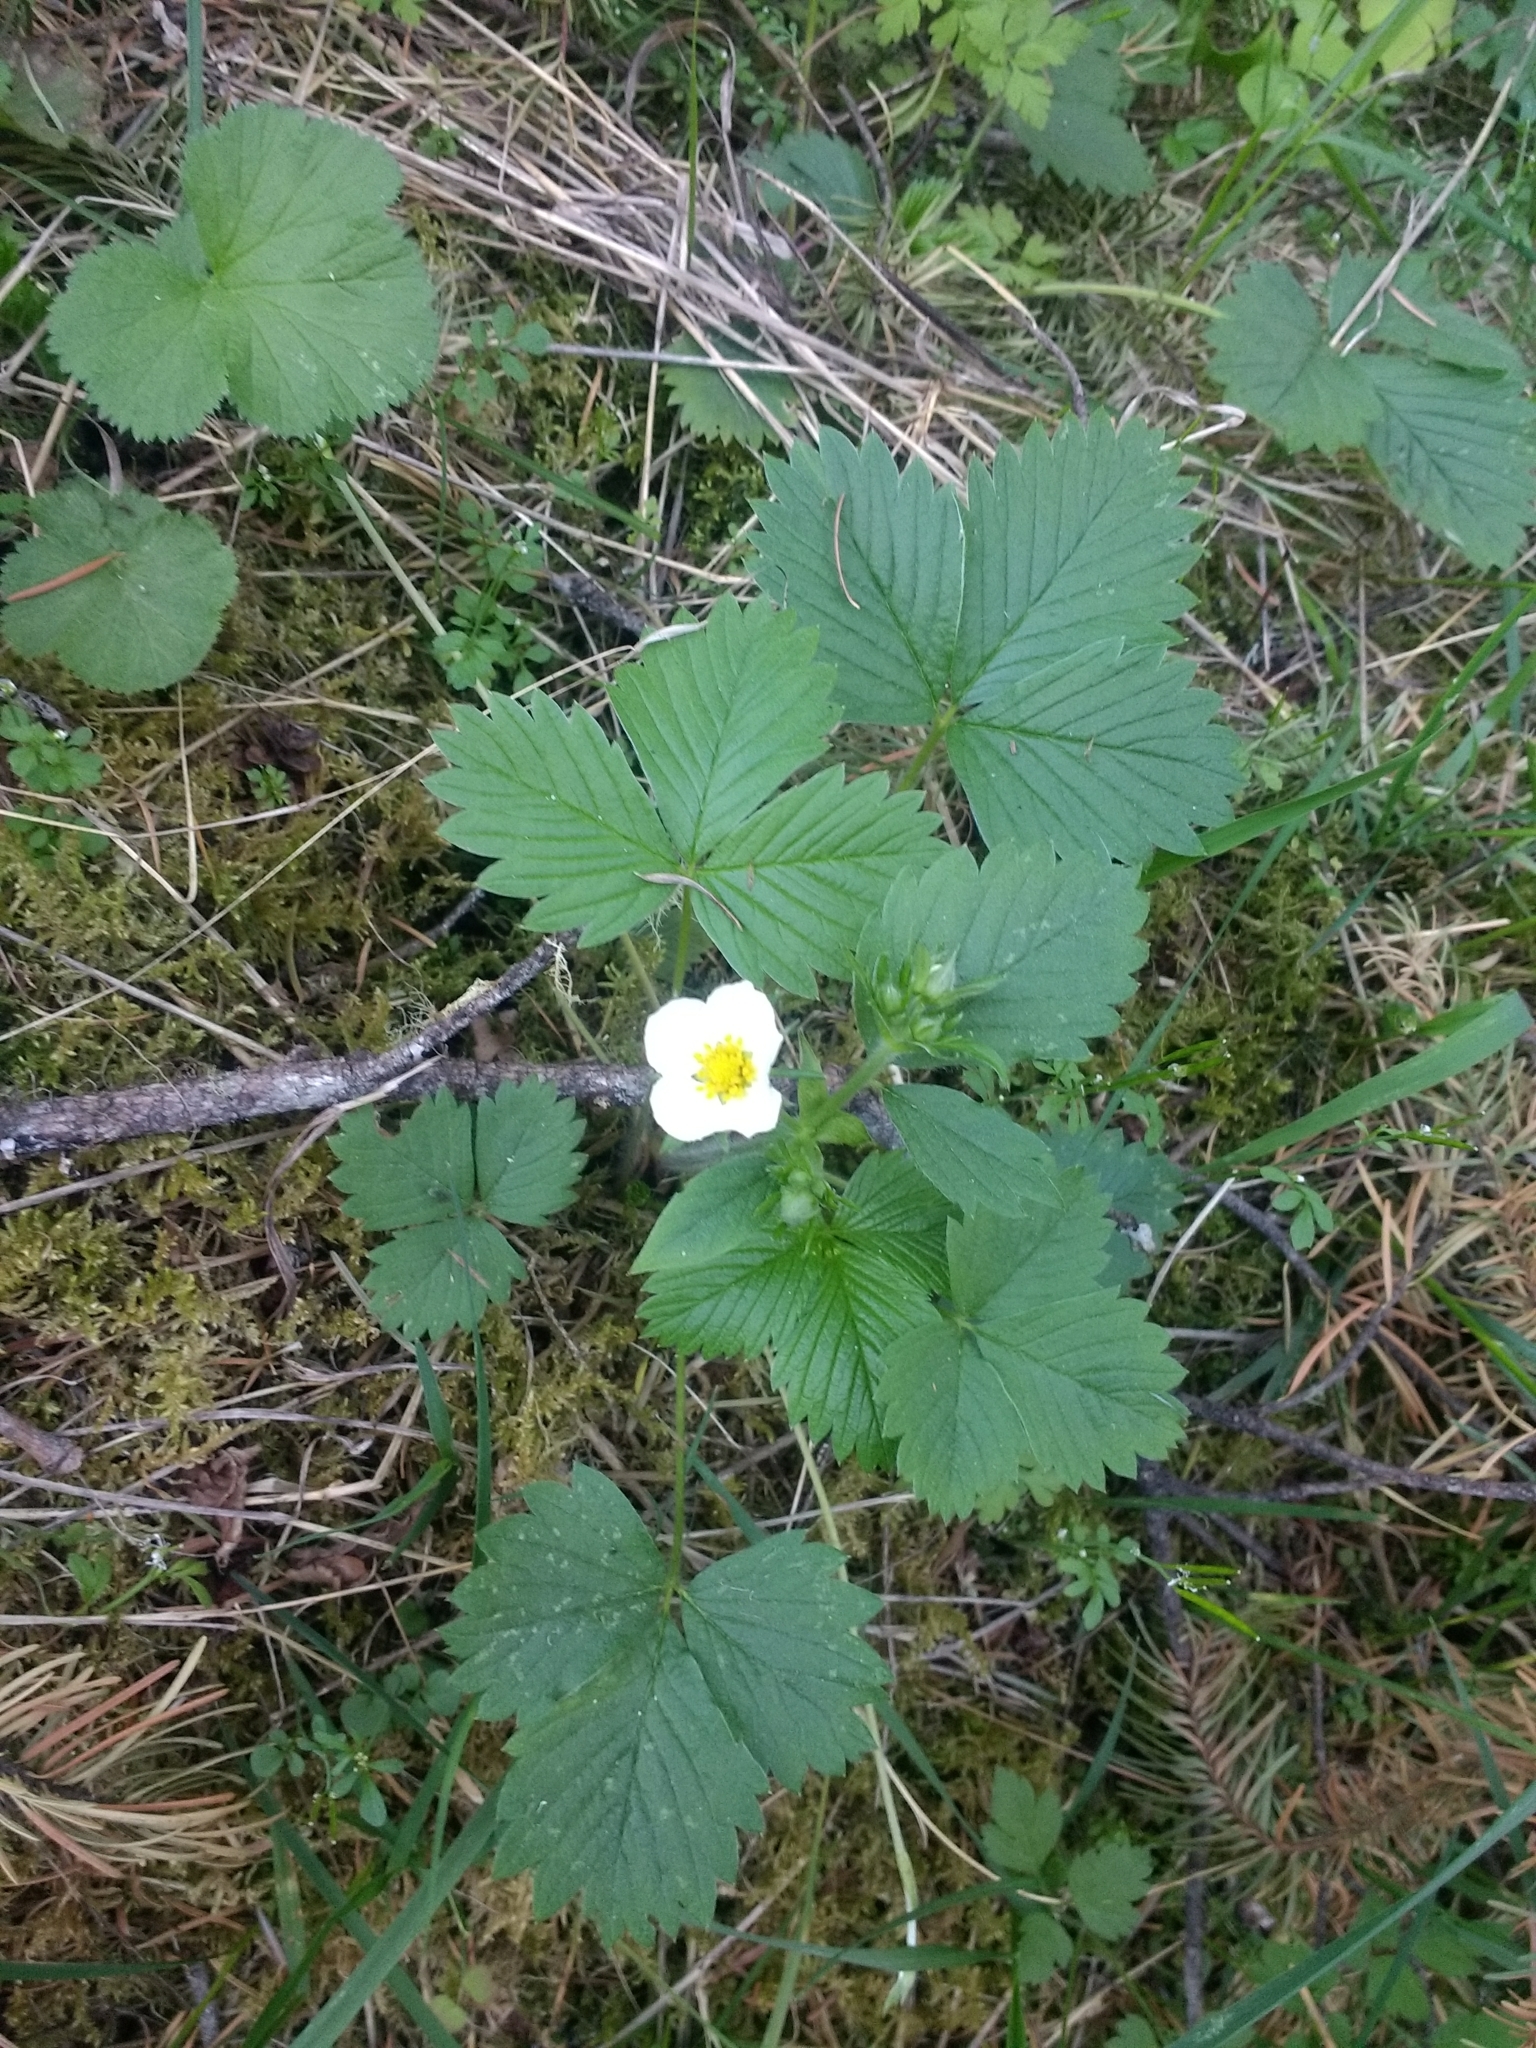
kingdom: Plantae
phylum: Tracheophyta
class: Magnoliopsida
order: Rosales
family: Rosaceae
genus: Fragaria
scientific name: Fragaria vesca
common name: Wild strawberry
